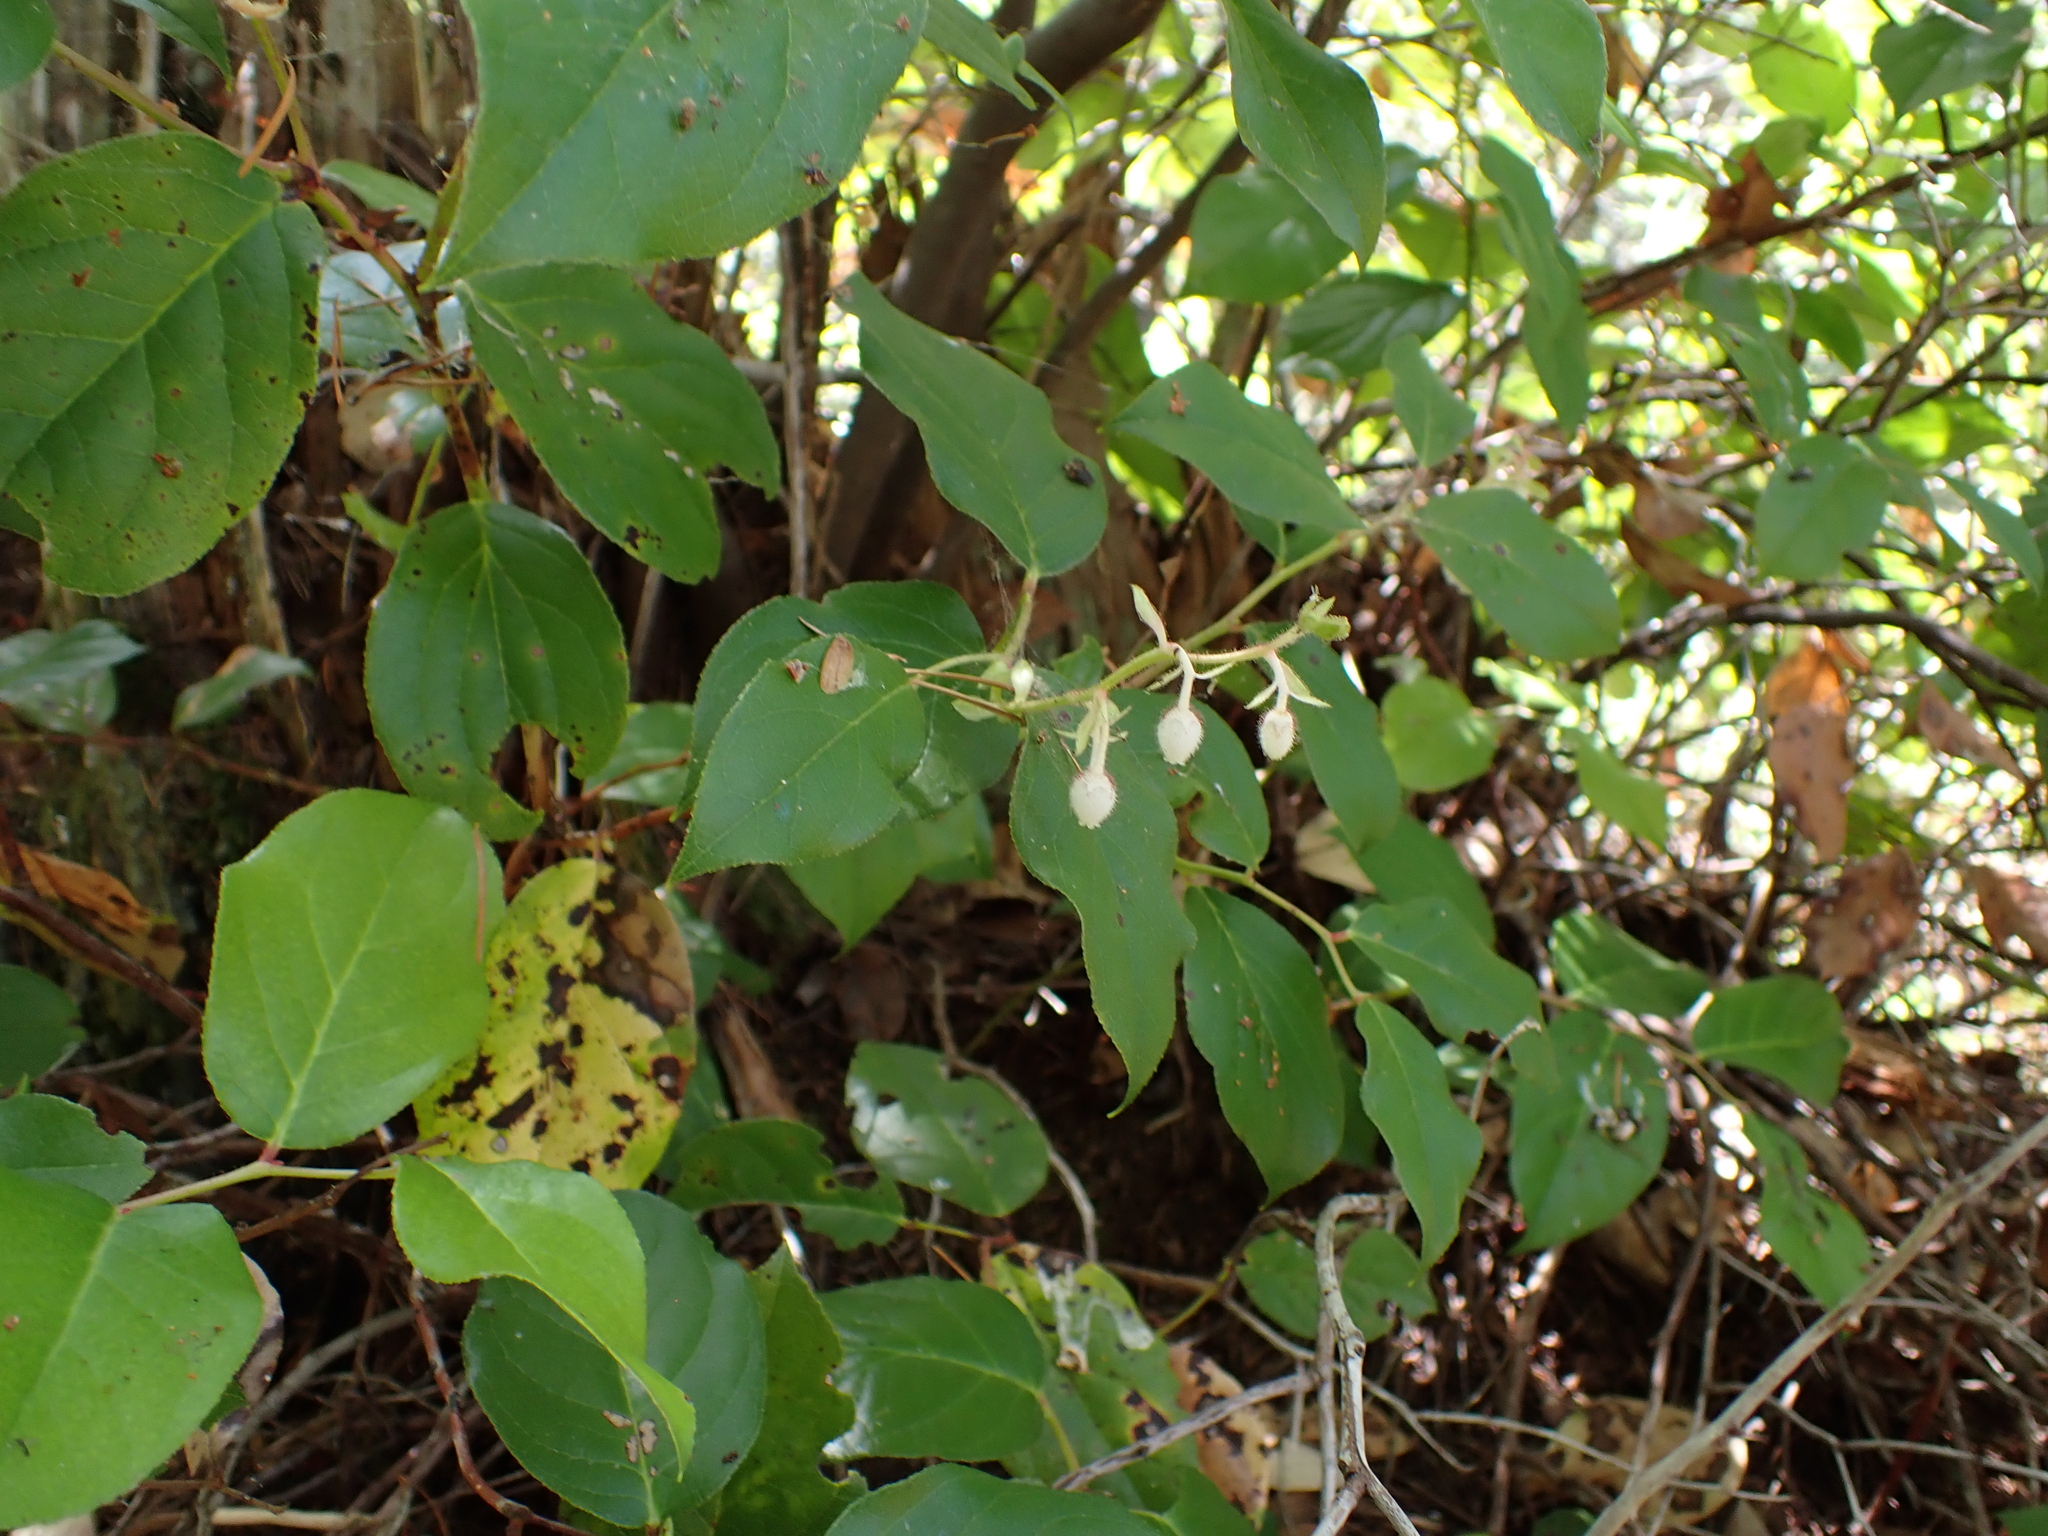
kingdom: Plantae
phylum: Tracheophyta
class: Magnoliopsida
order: Ericales
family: Ericaceae
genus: Gaultheria
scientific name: Gaultheria shallon
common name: Shallon
